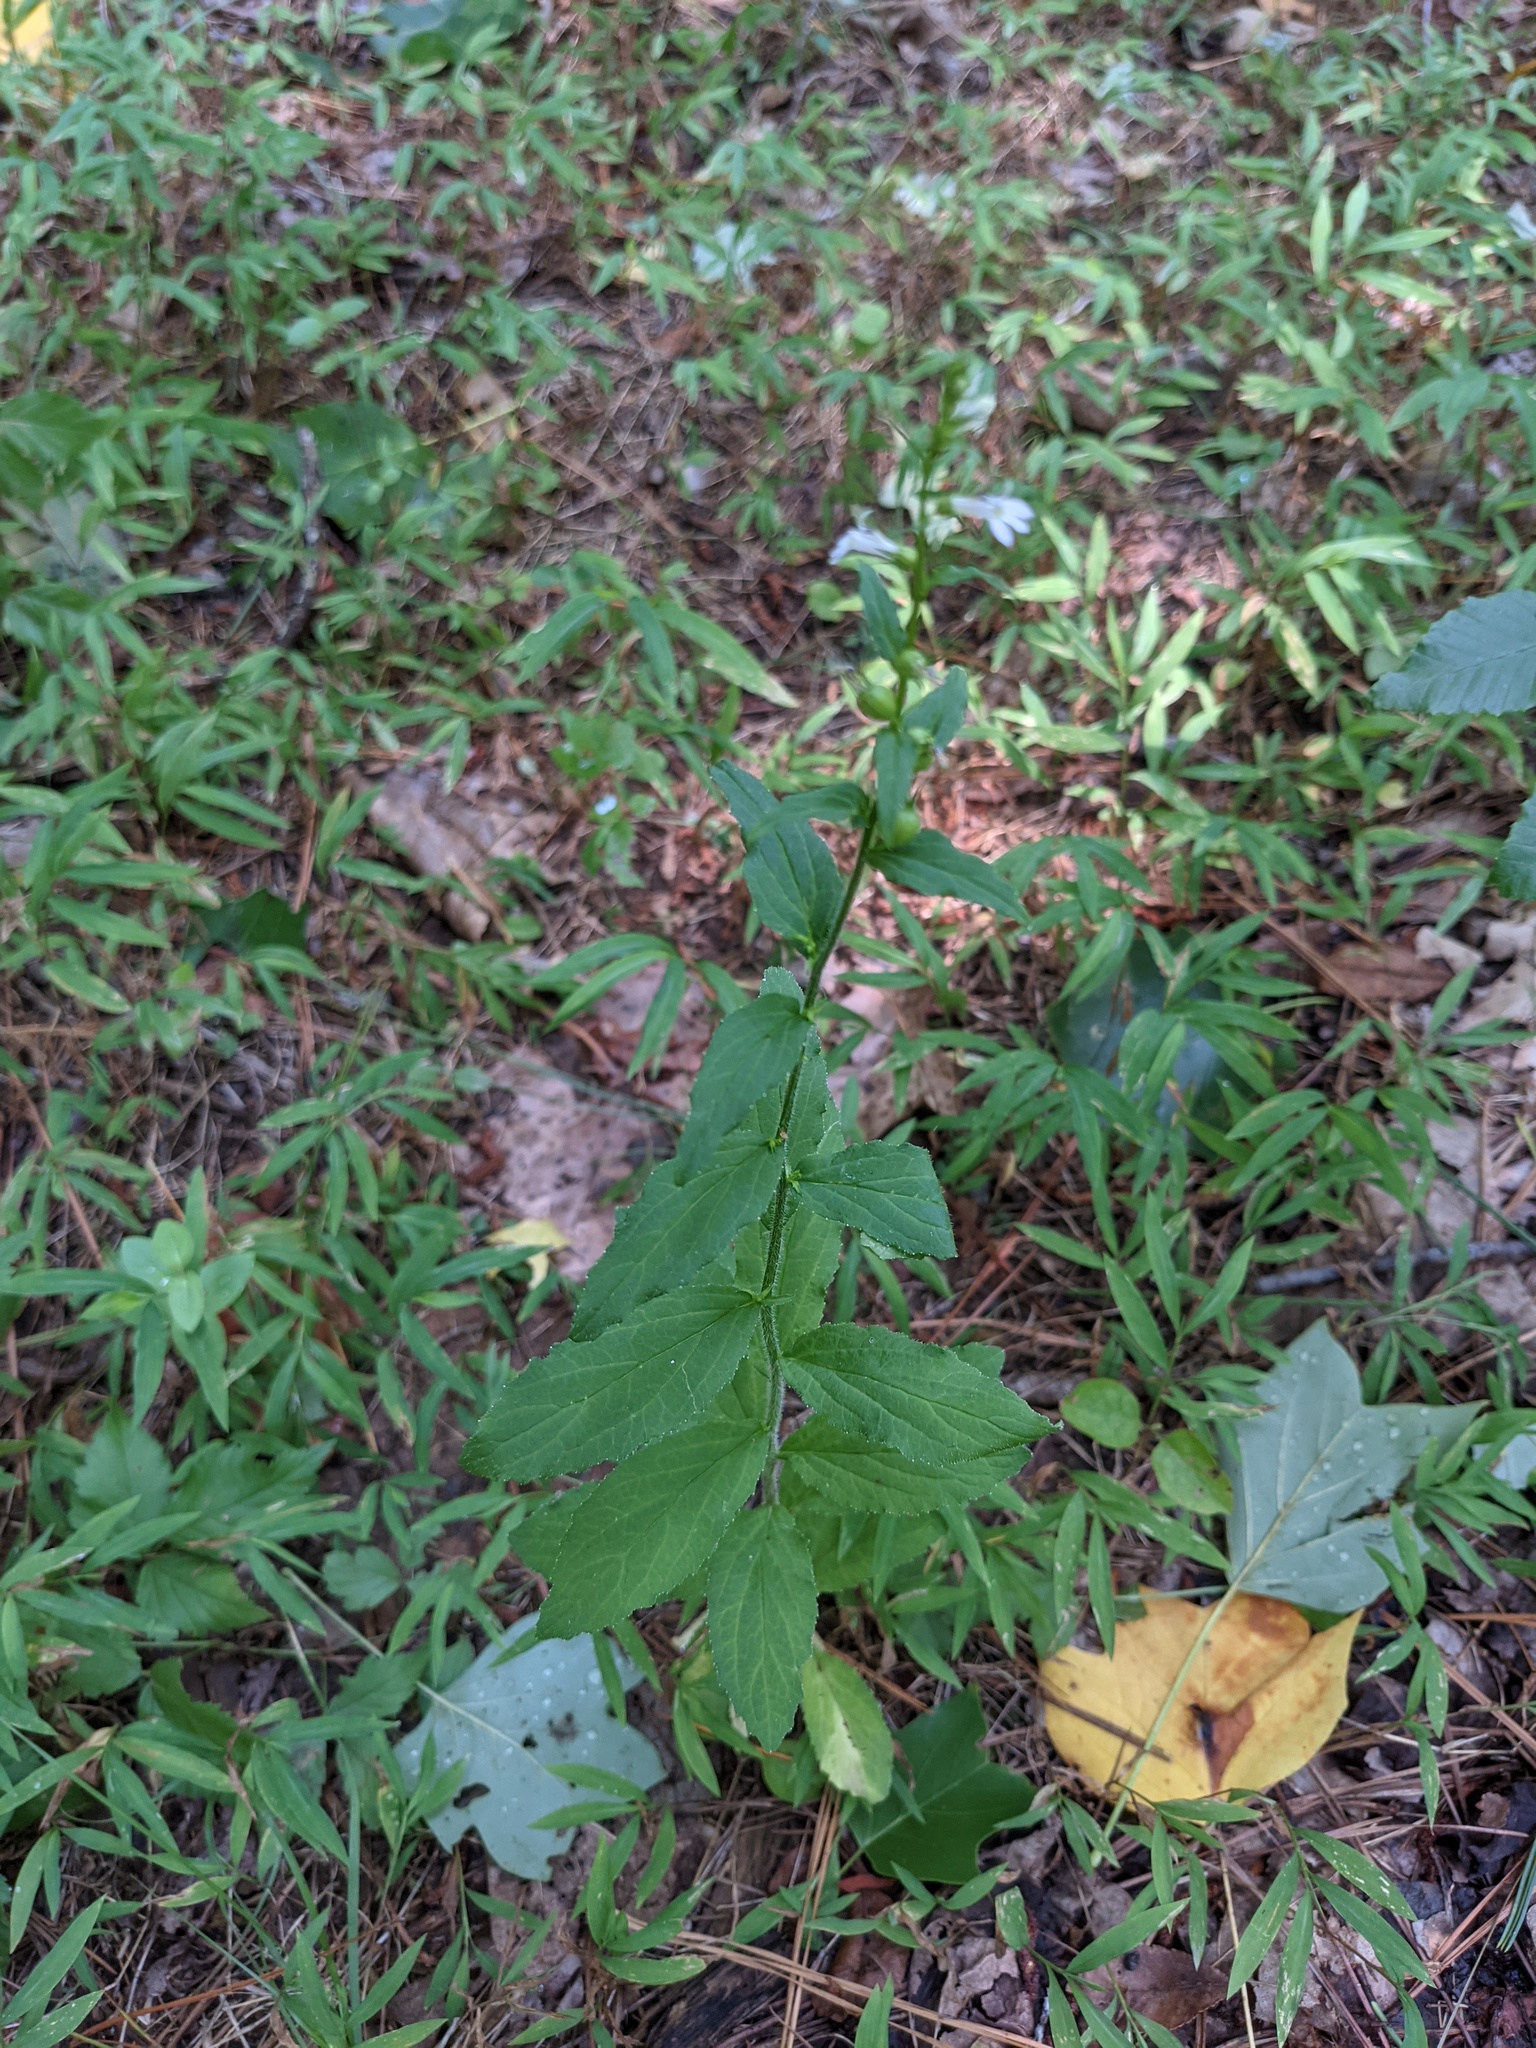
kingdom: Plantae
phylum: Tracheophyta
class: Magnoliopsida
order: Asterales
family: Campanulaceae
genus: Lobelia
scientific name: Lobelia inflata
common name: Indian tobacco
